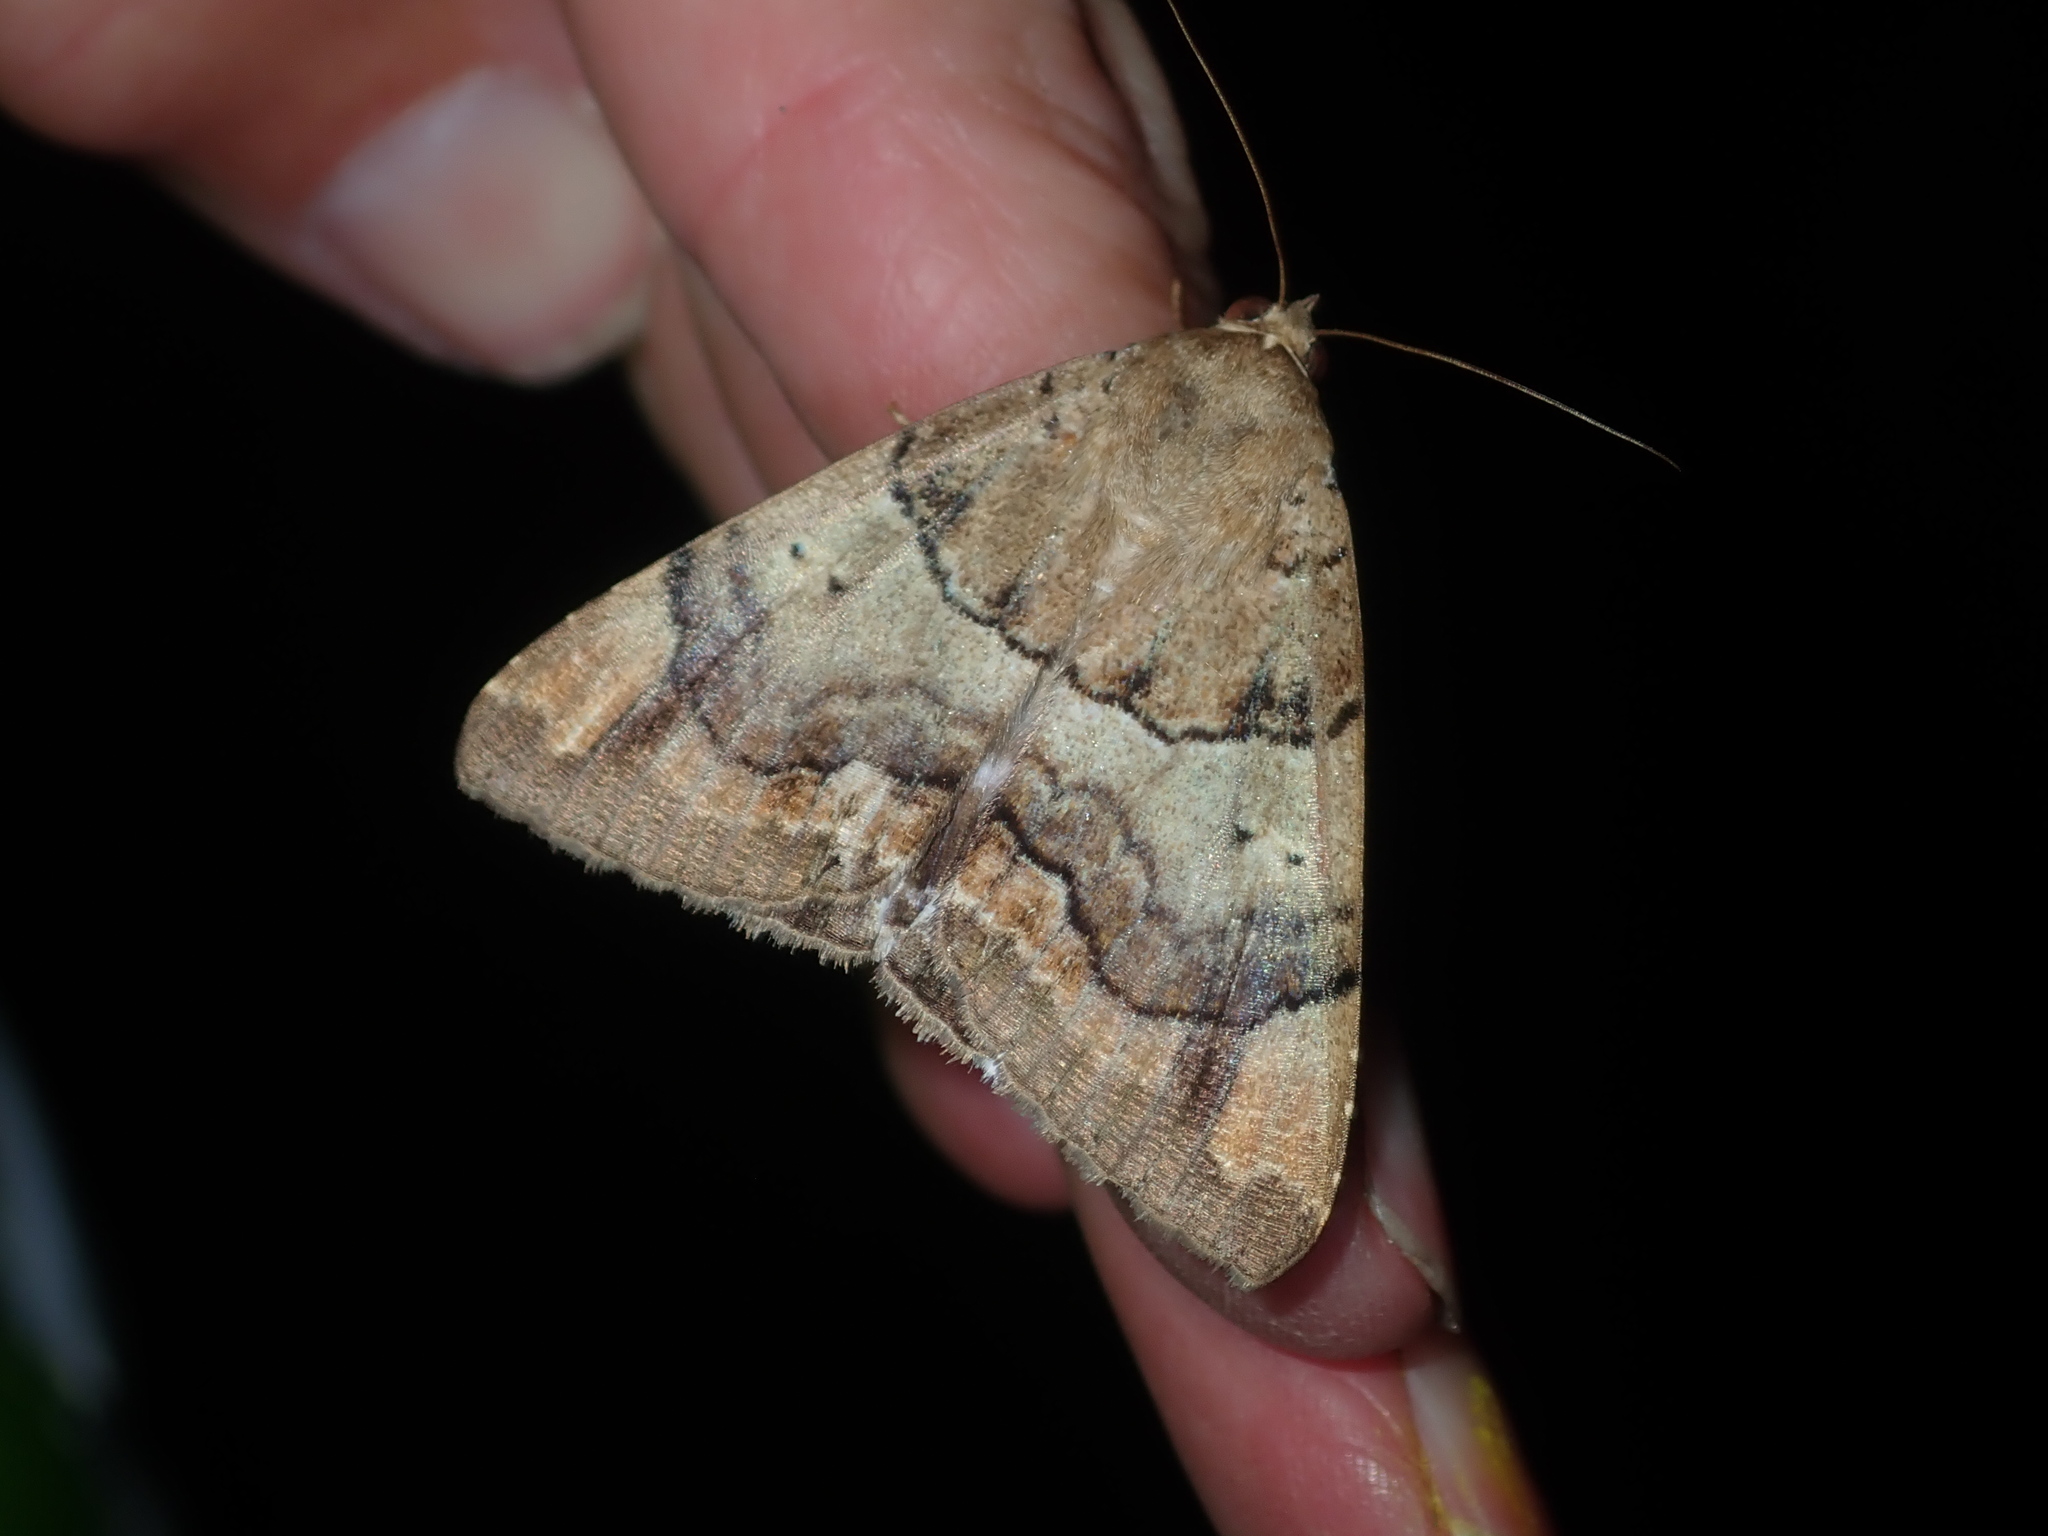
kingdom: Animalia
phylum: Arthropoda
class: Insecta
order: Lepidoptera
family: Erebidae
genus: Achaea
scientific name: Achaea janata
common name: Croton caterpillar
